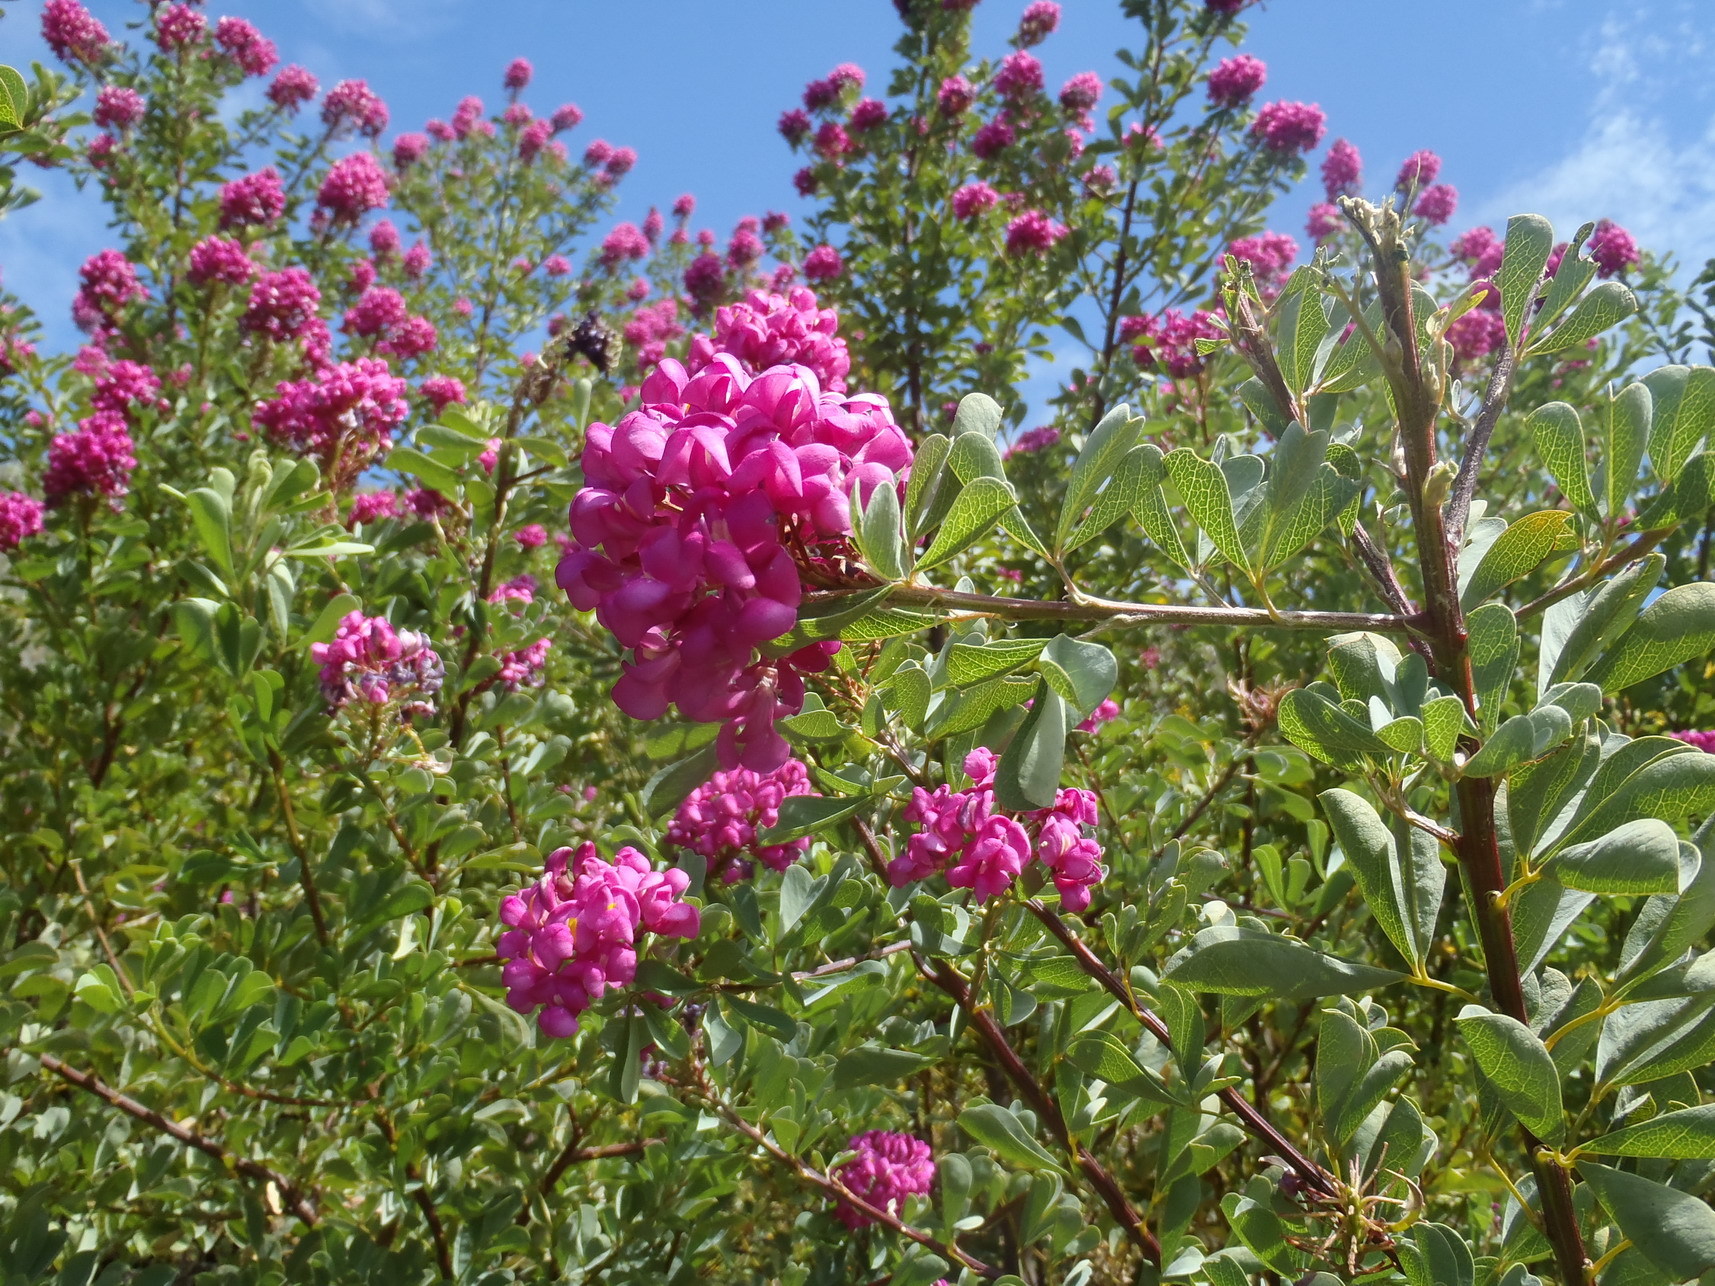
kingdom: Plantae
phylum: Tracheophyta
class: Magnoliopsida
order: Fabales
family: Fabaceae
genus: Hypocalyptus
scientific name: Hypocalyptus sophoroides
